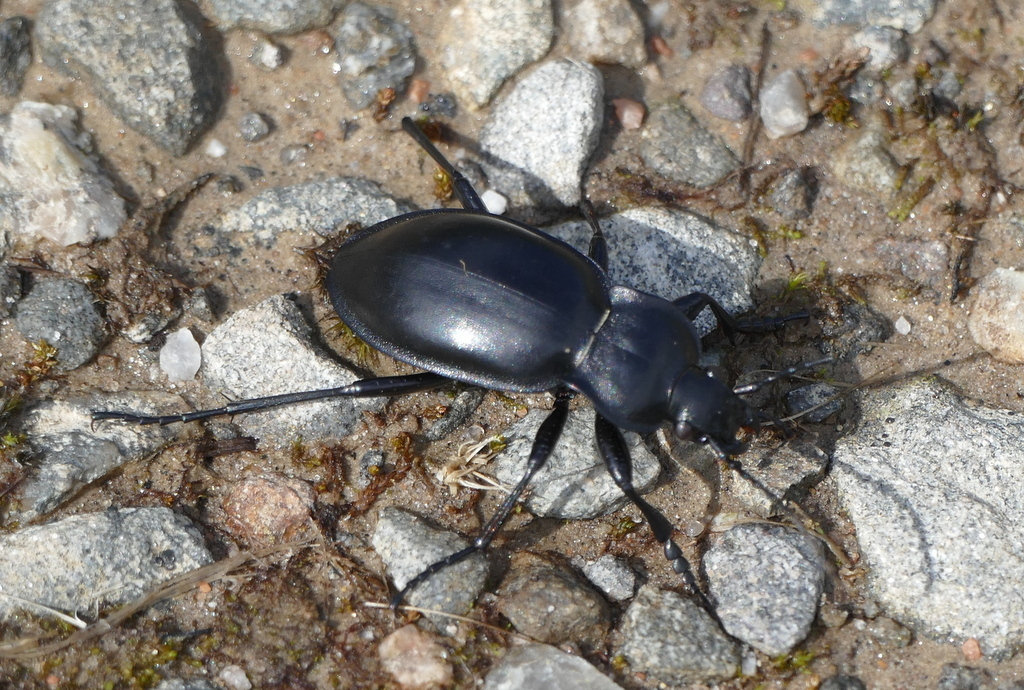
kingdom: Animalia
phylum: Arthropoda
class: Insecta
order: Coleoptera
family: Carabidae
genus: Carabus
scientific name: Carabus glabratus
